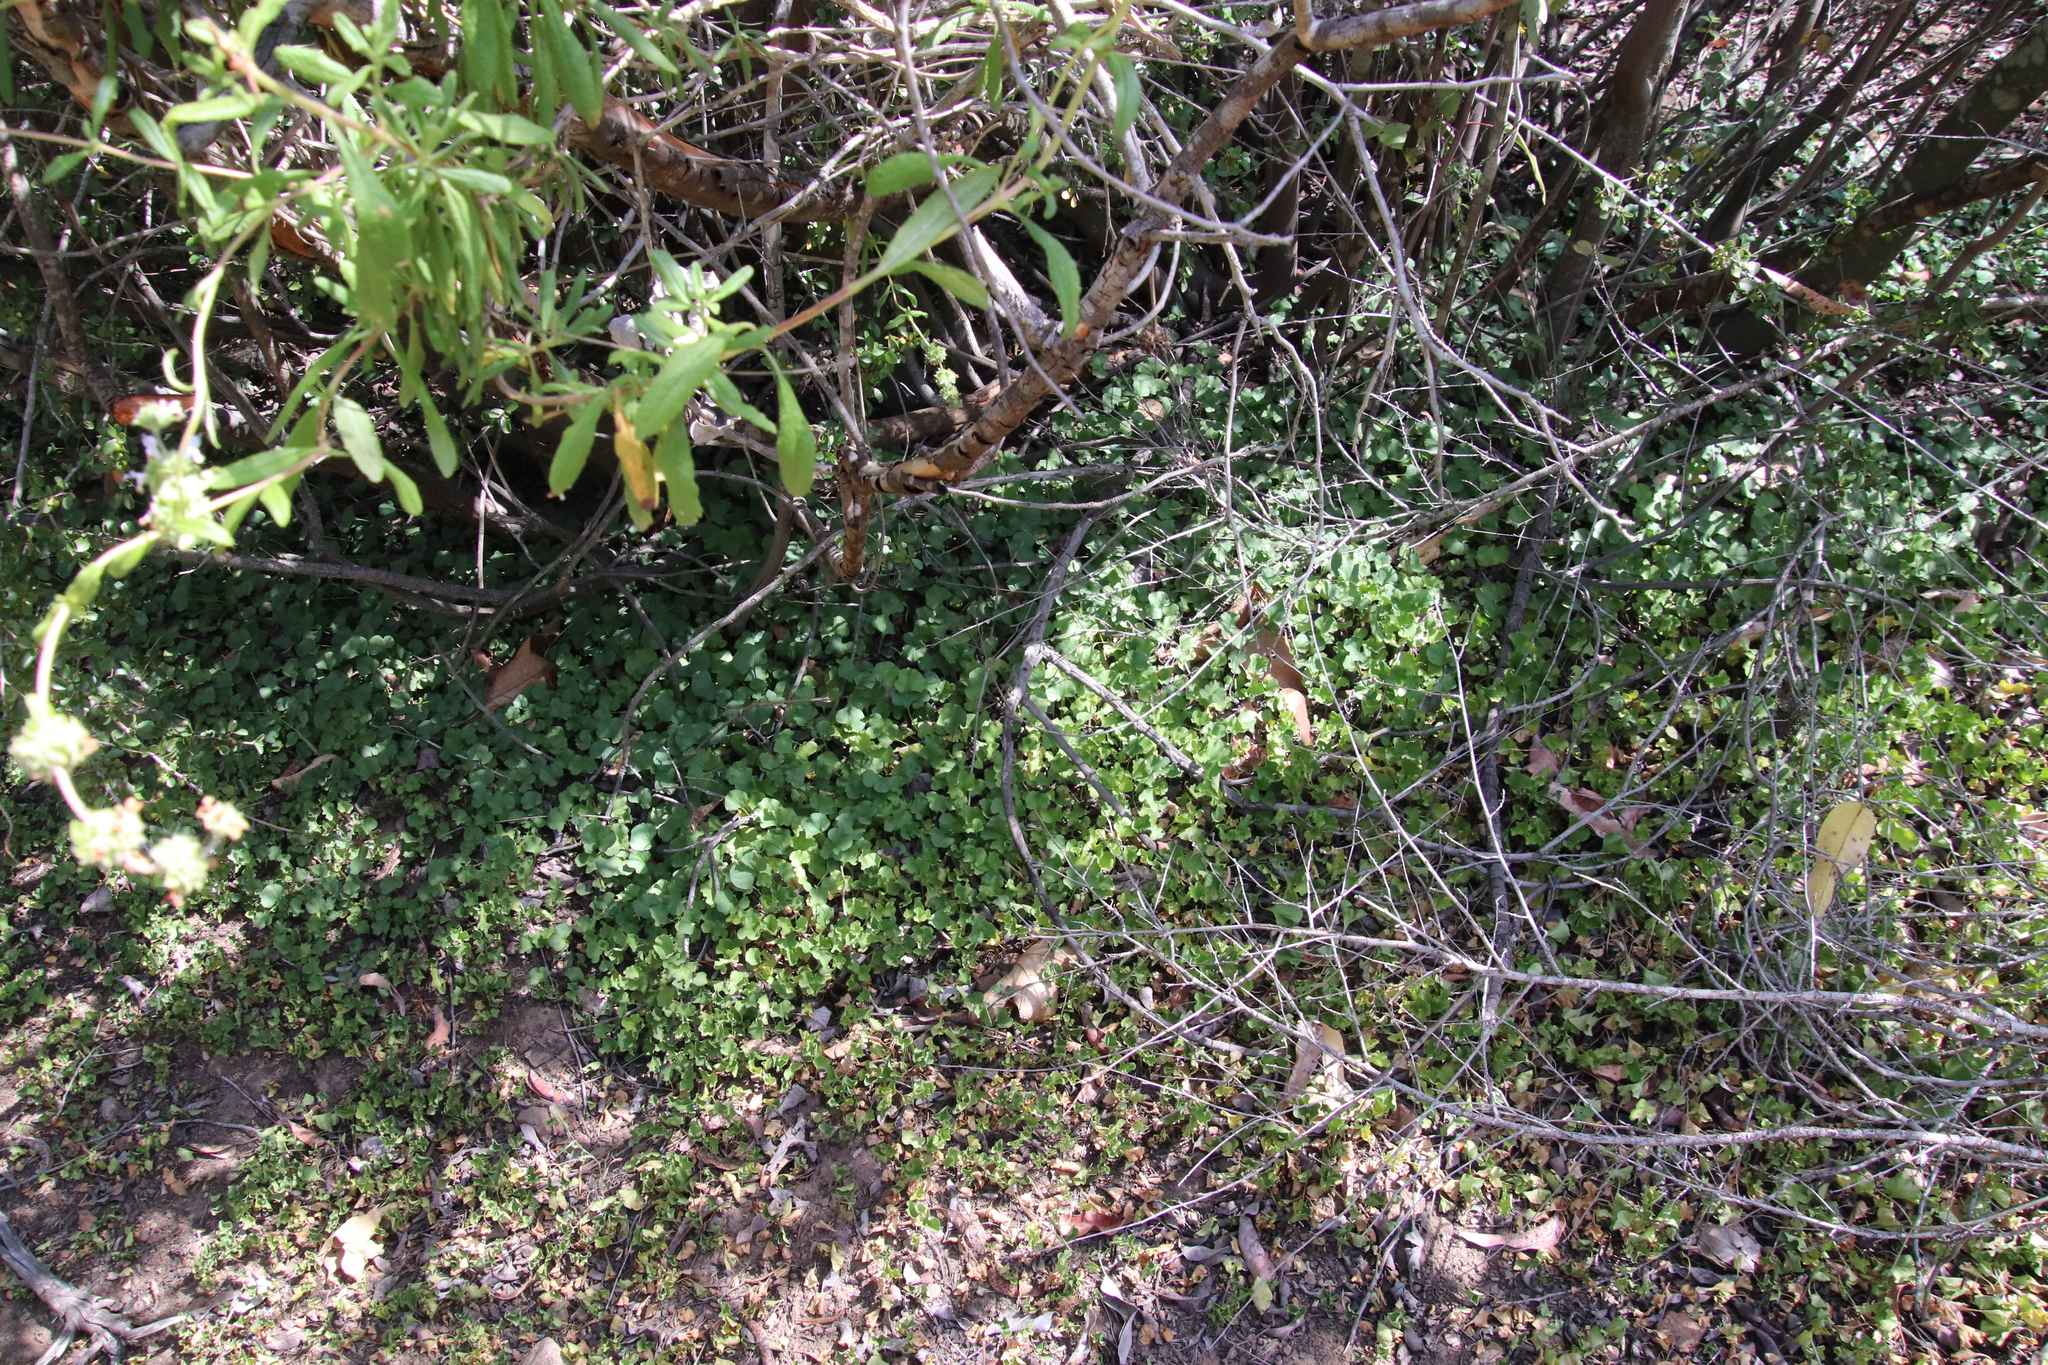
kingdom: Plantae
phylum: Tracheophyta
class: Magnoliopsida
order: Solanales
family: Convolvulaceae
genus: Dichondra
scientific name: Dichondra occidentalis
